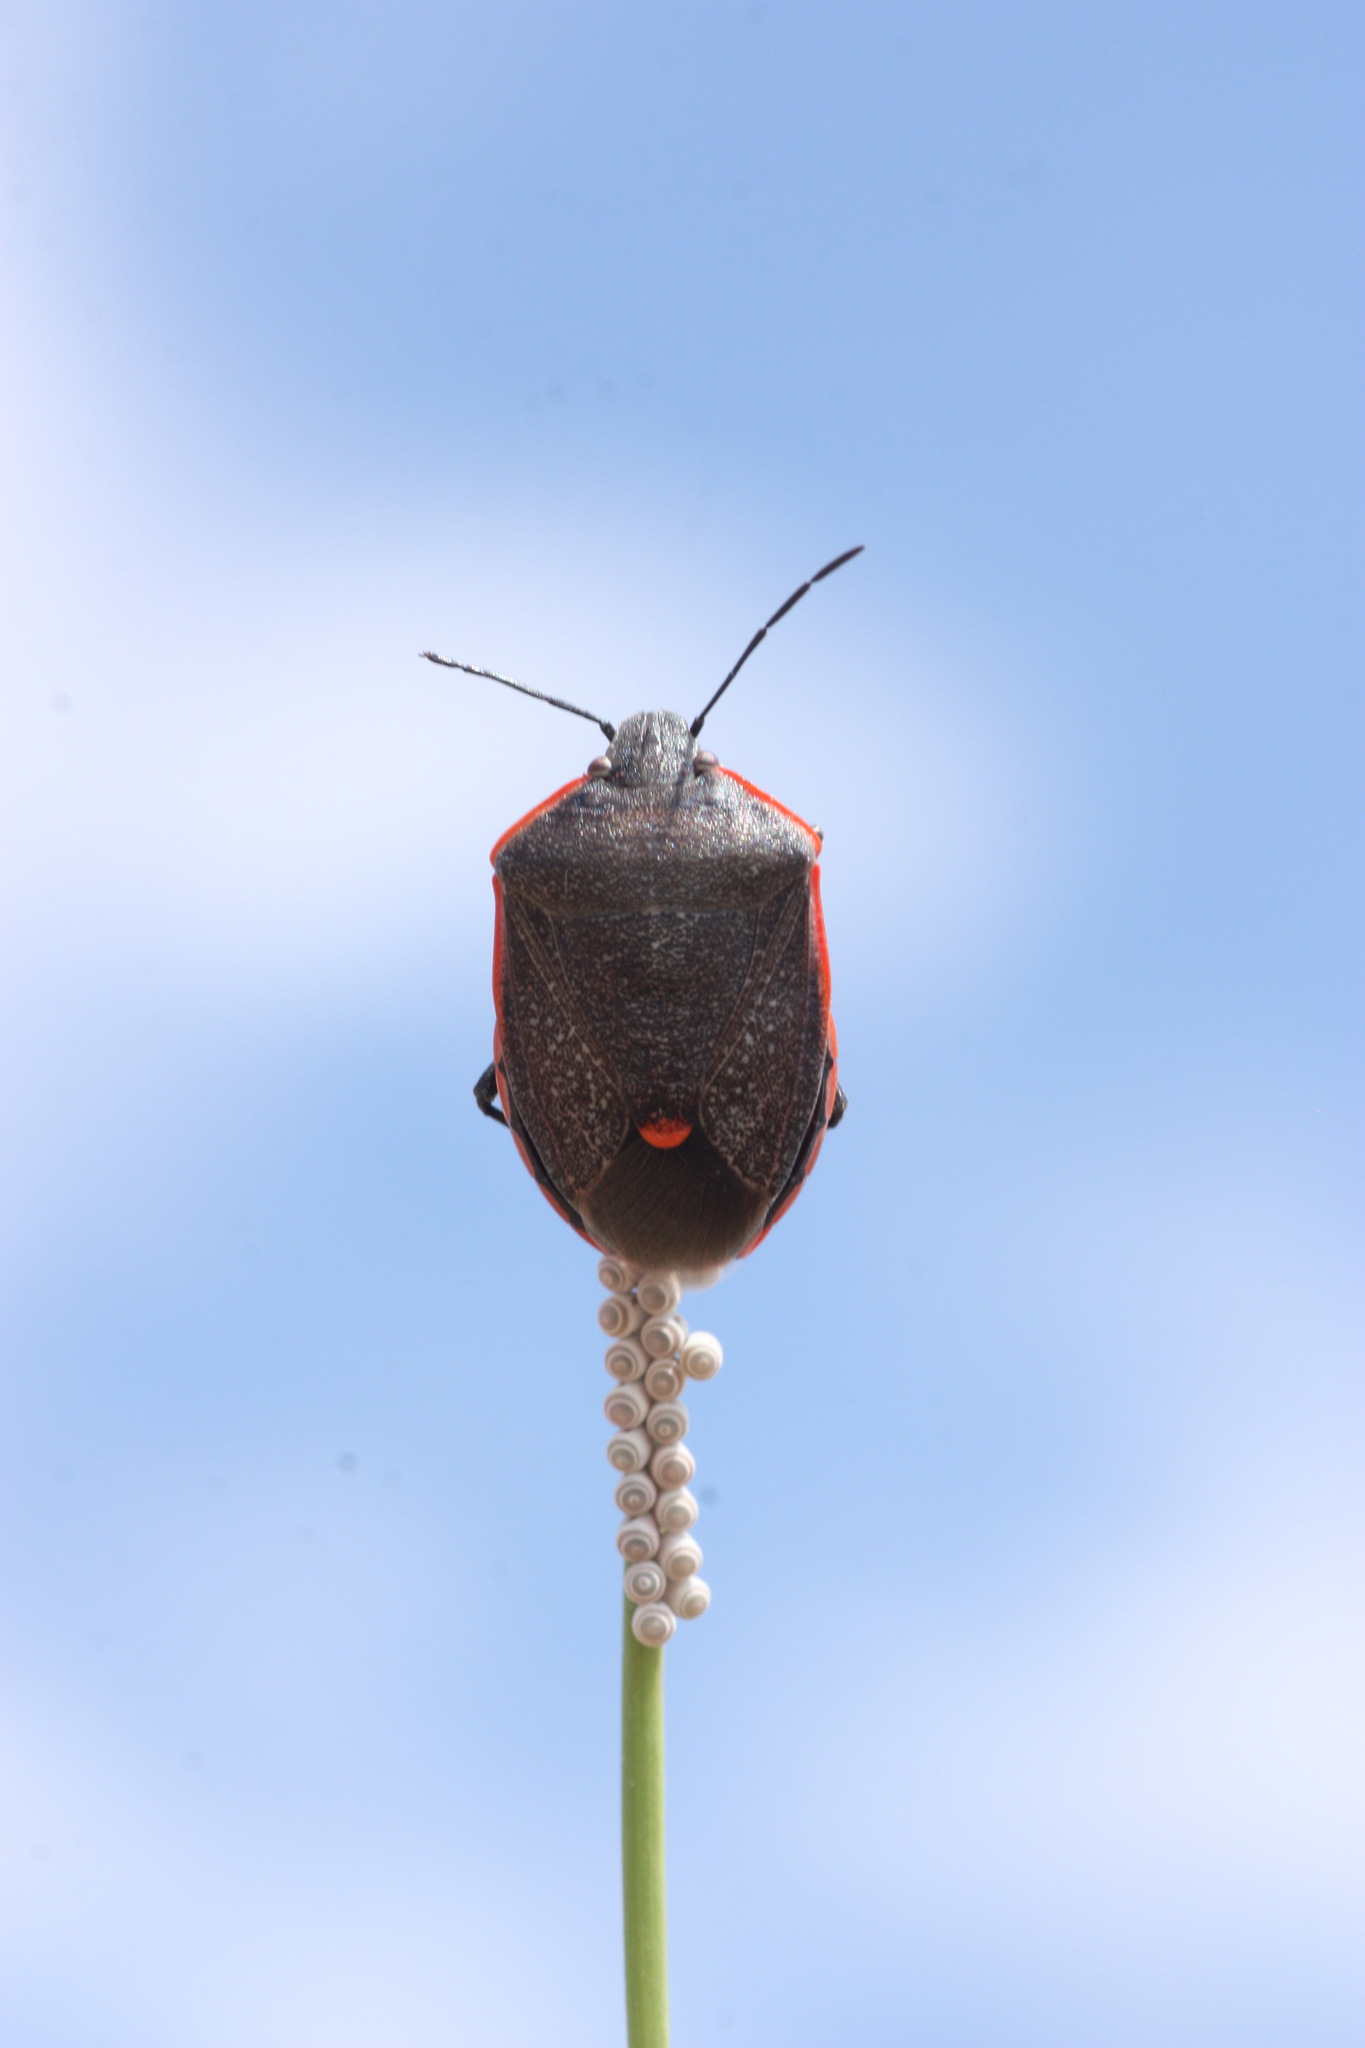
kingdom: Animalia
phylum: Arthropoda
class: Insecta
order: Hemiptera
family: Pentatomidae
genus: Chlorochroa
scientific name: Chlorochroa ligata
